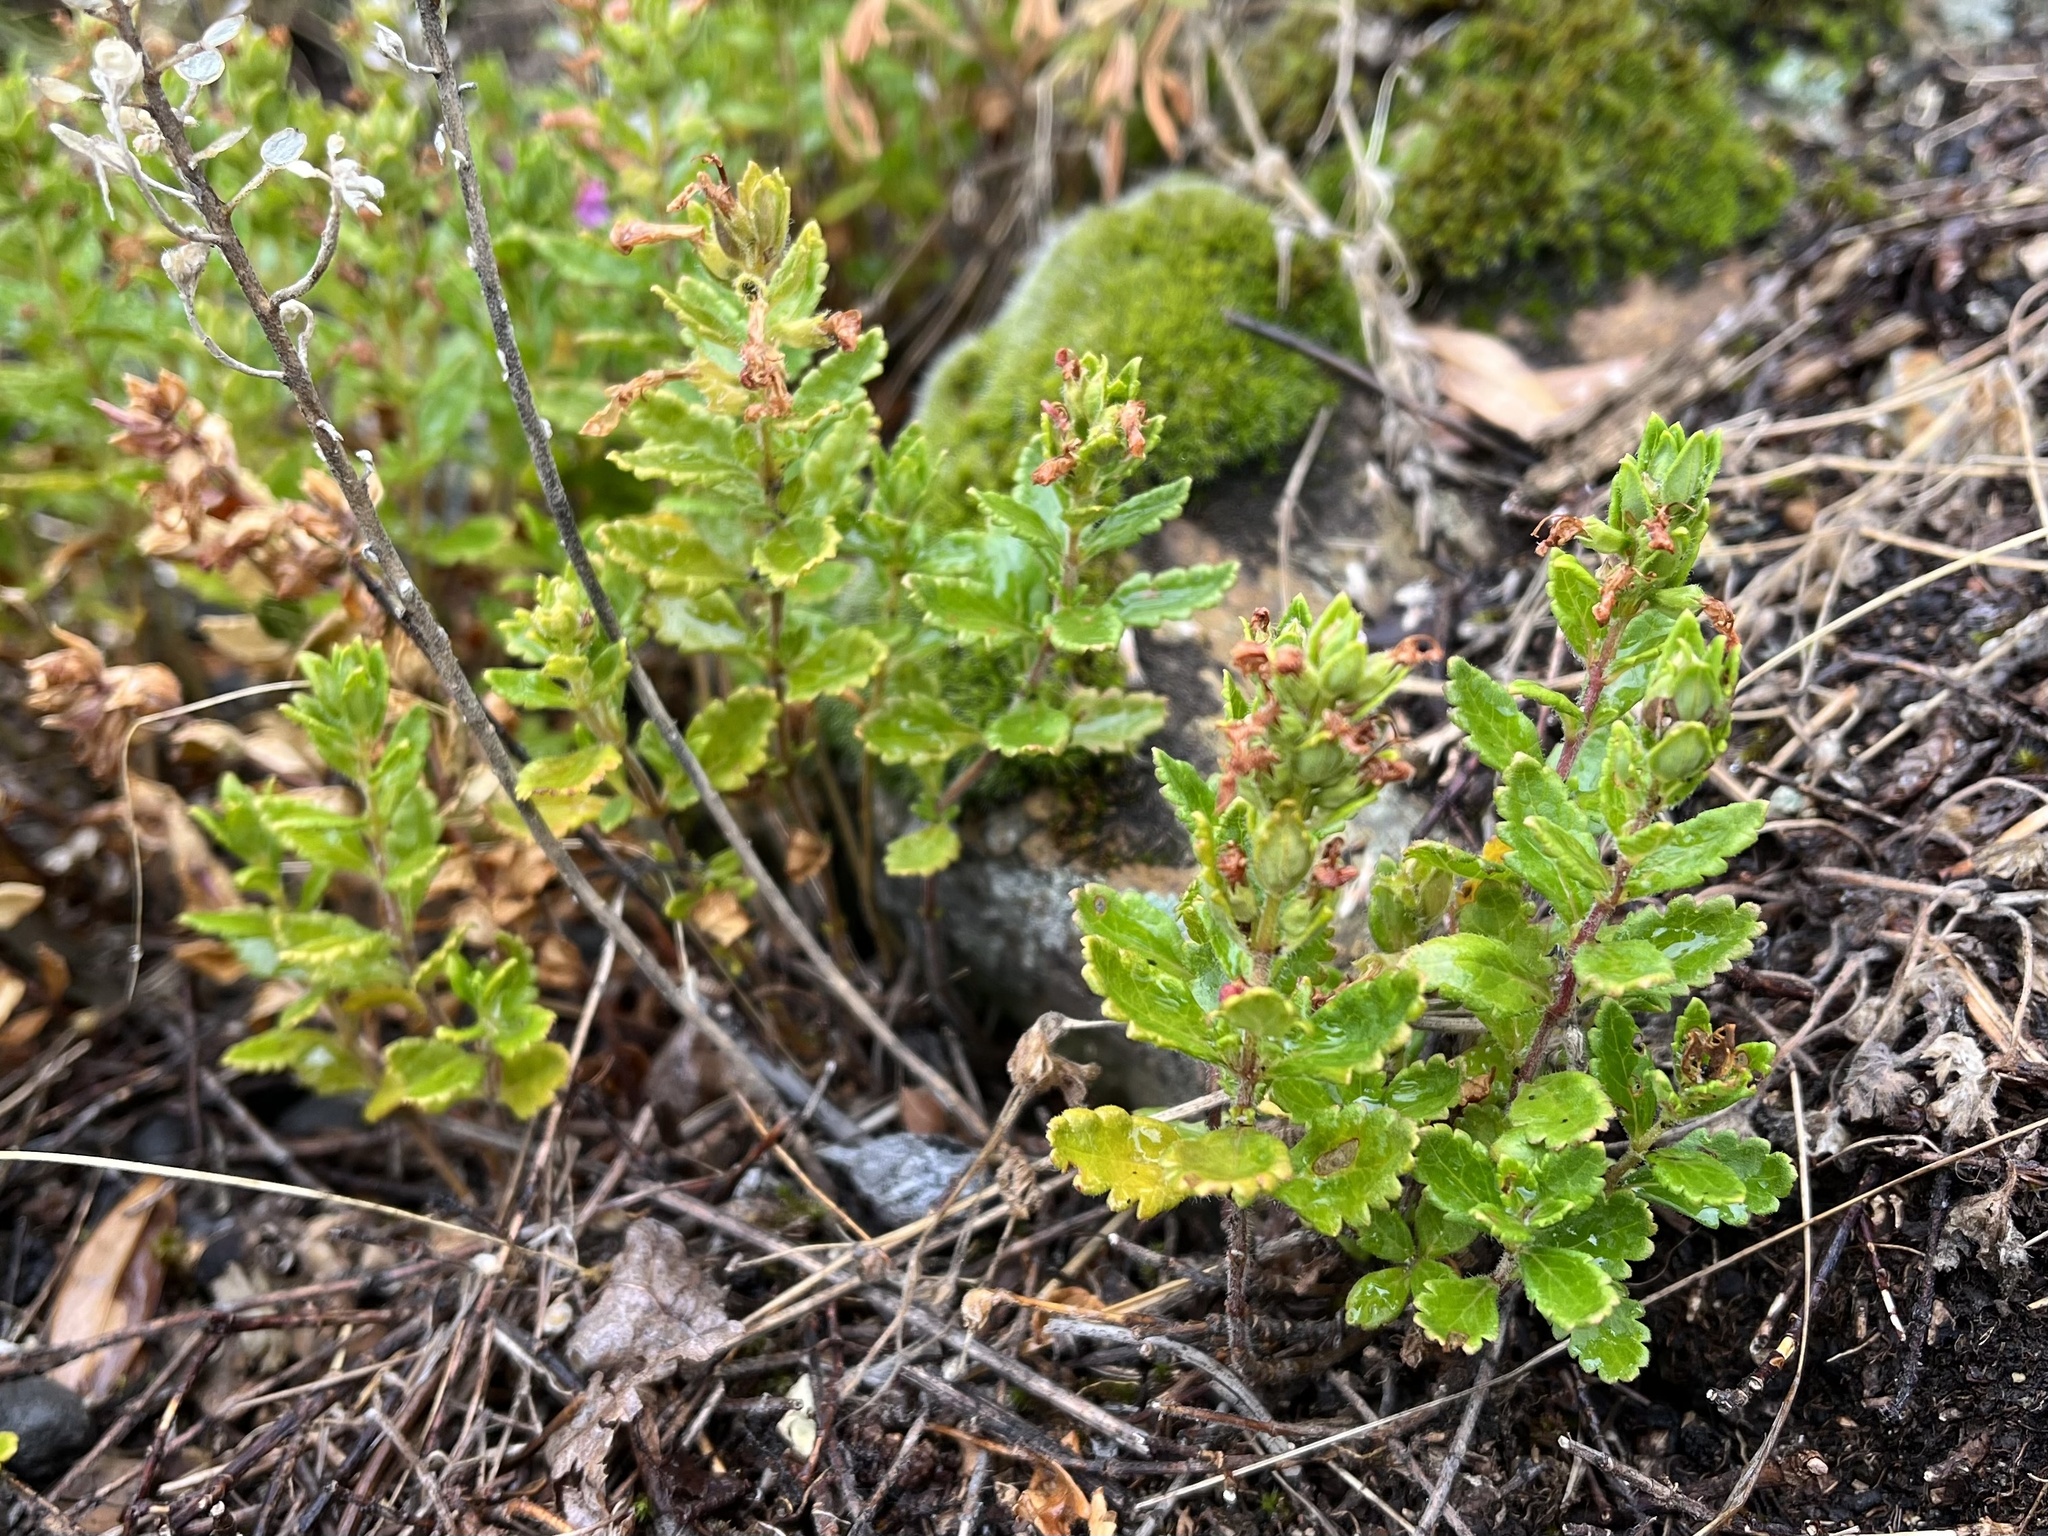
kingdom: Plantae
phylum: Tracheophyta
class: Magnoliopsida
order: Lamiales
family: Lamiaceae
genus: Teucrium
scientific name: Teucrium chamaedrys
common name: Wall germander
